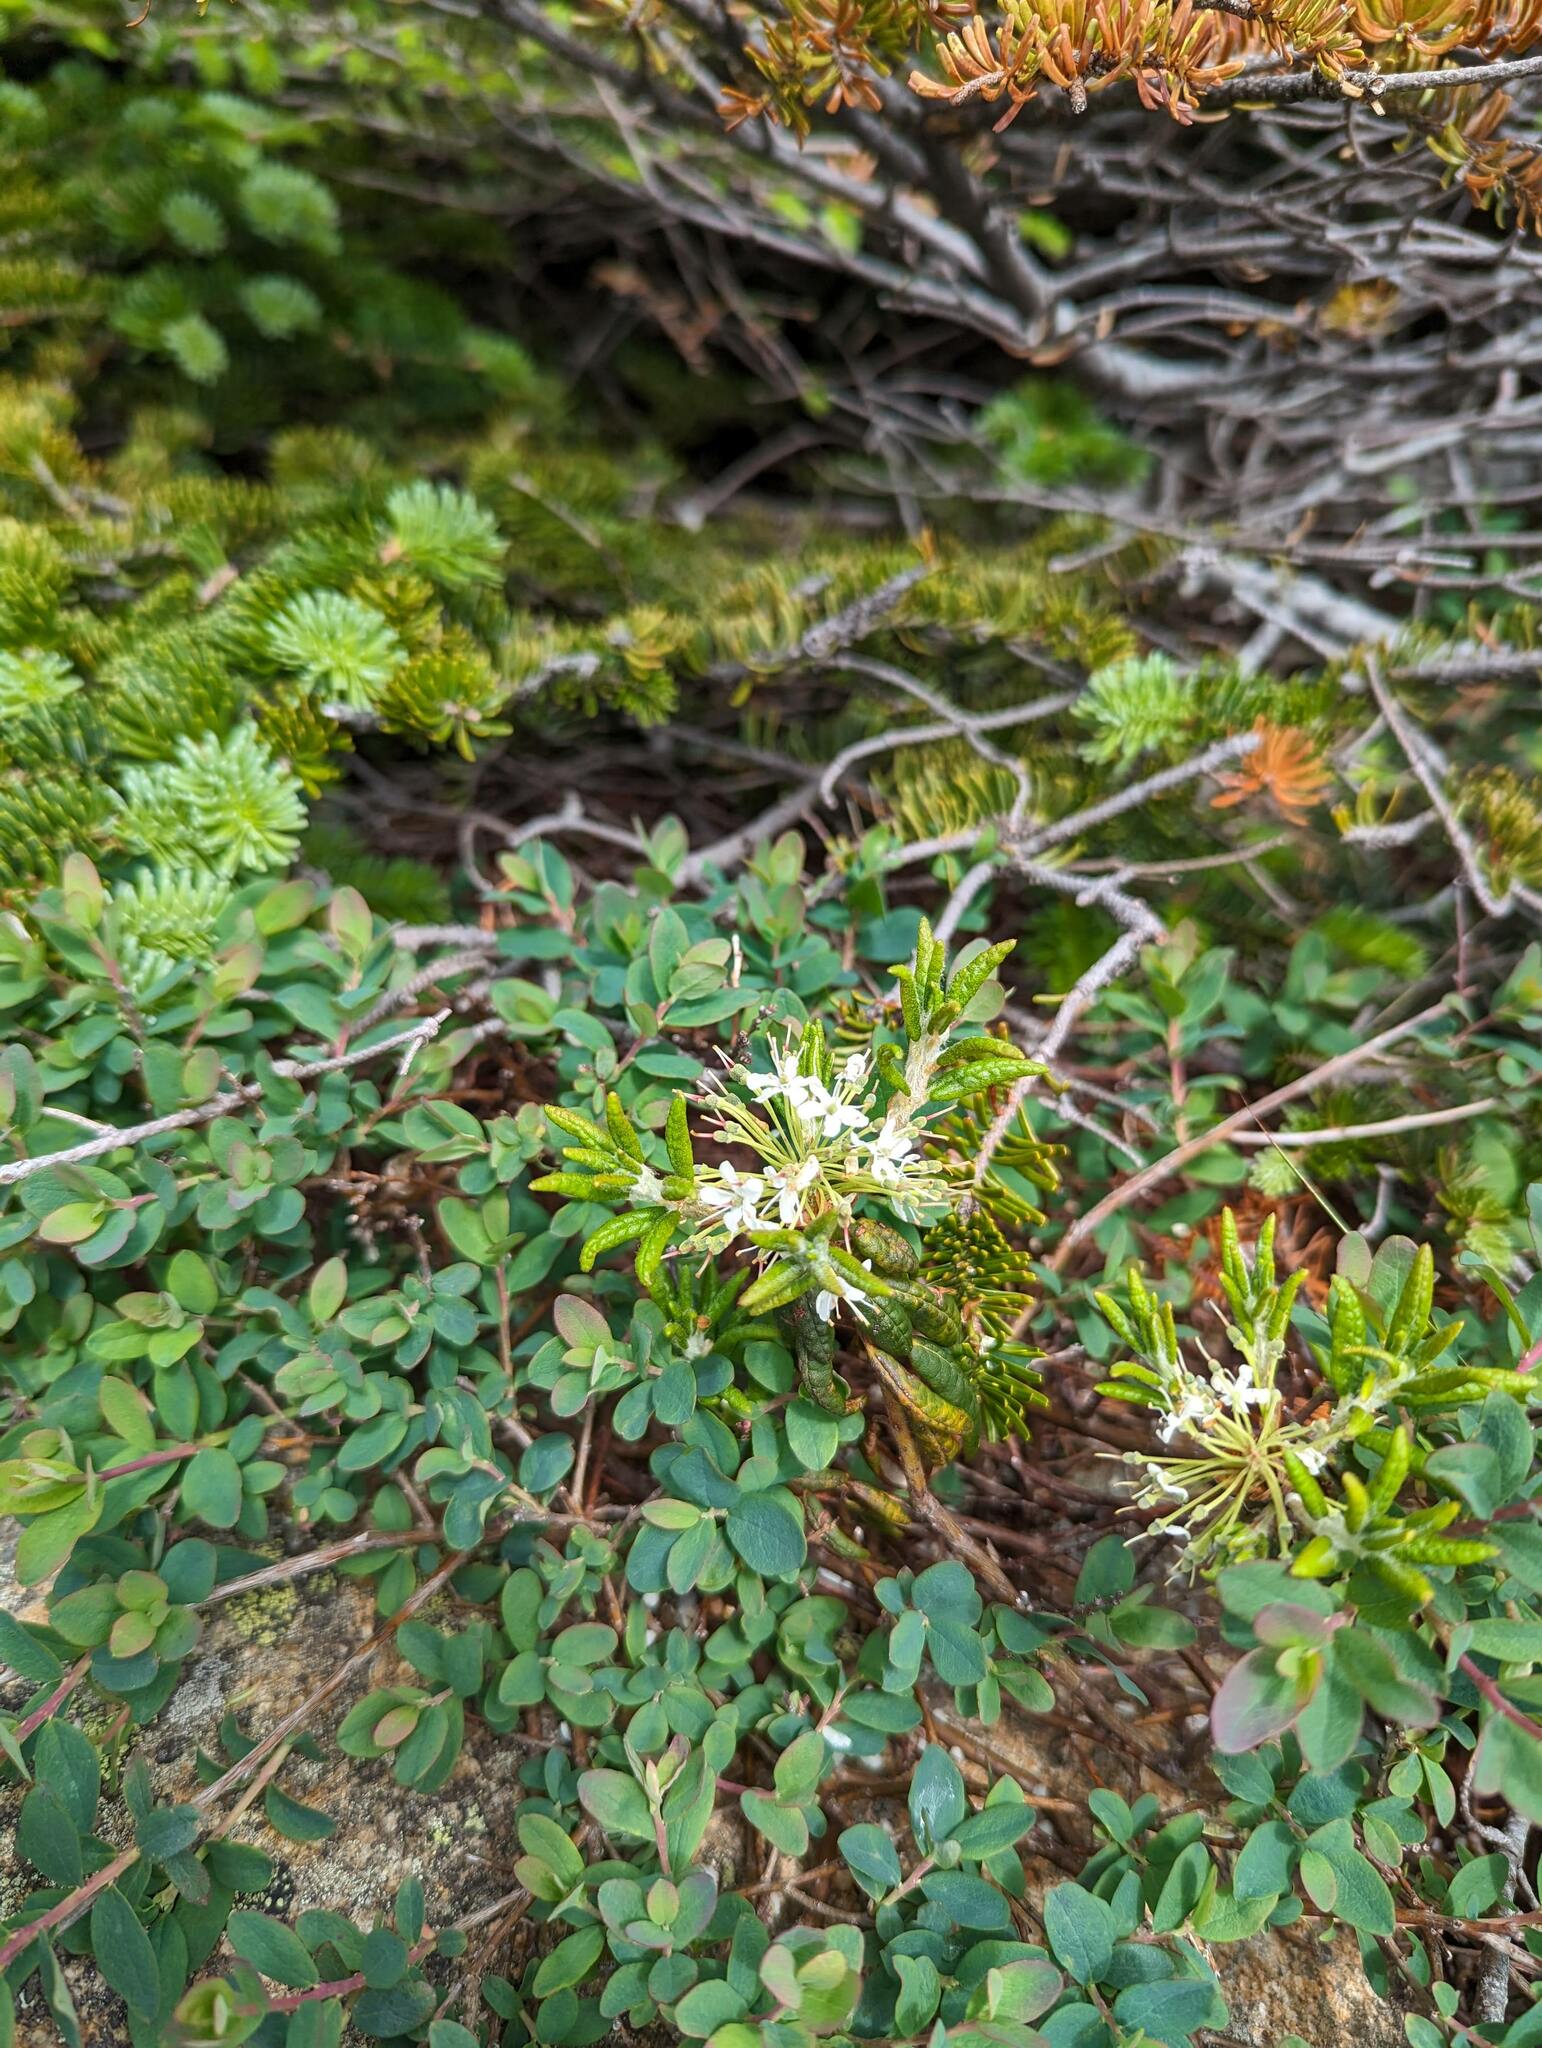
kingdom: Plantae
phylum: Tracheophyta
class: Magnoliopsida
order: Ericales
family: Ericaceae
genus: Rhododendron
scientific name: Rhododendron groenlandicum
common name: Bog labrador tea
